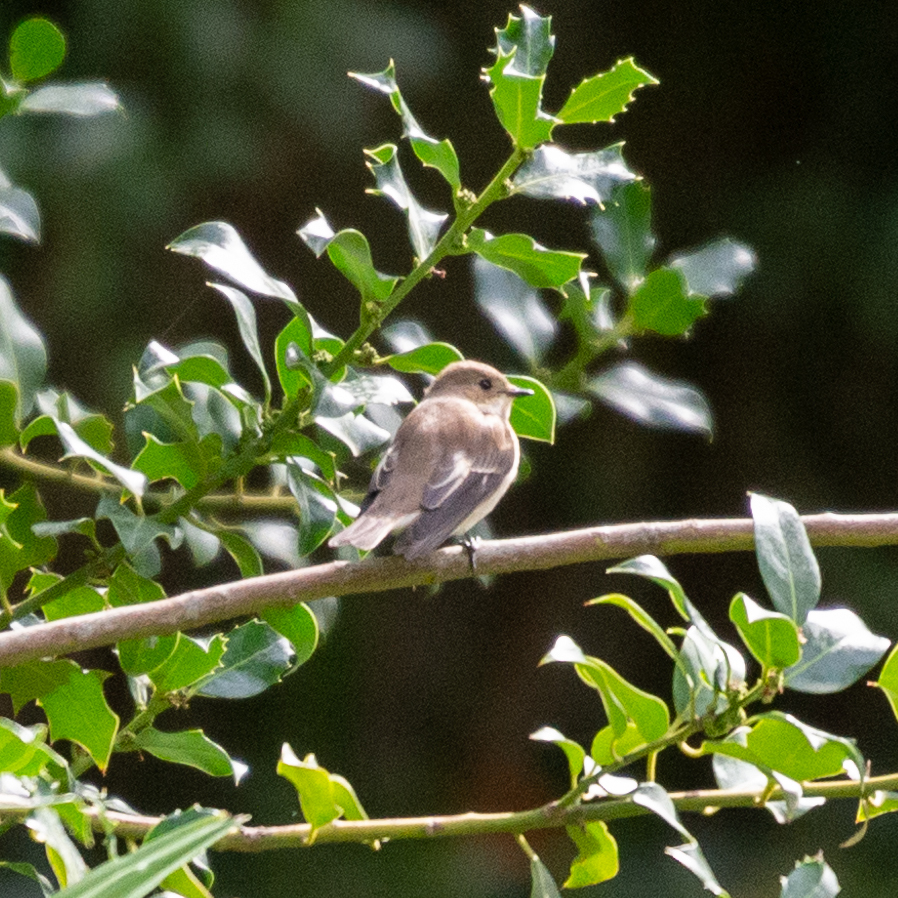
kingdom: Animalia
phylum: Chordata
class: Aves
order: Passeriformes
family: Muscicapidae
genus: Ficedula
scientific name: Ficedula hypoleuca
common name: European pied flycatcher
